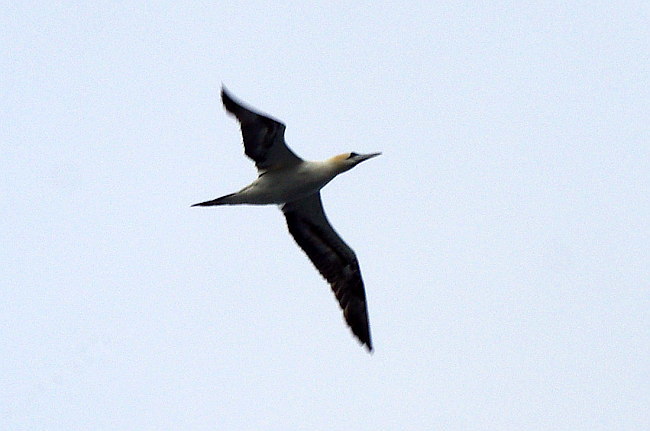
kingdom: Animalia
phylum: Chordata
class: Aves
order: Suliformes
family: Sulidae
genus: Morus
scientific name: Morus bassanus
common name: Northern gannet
